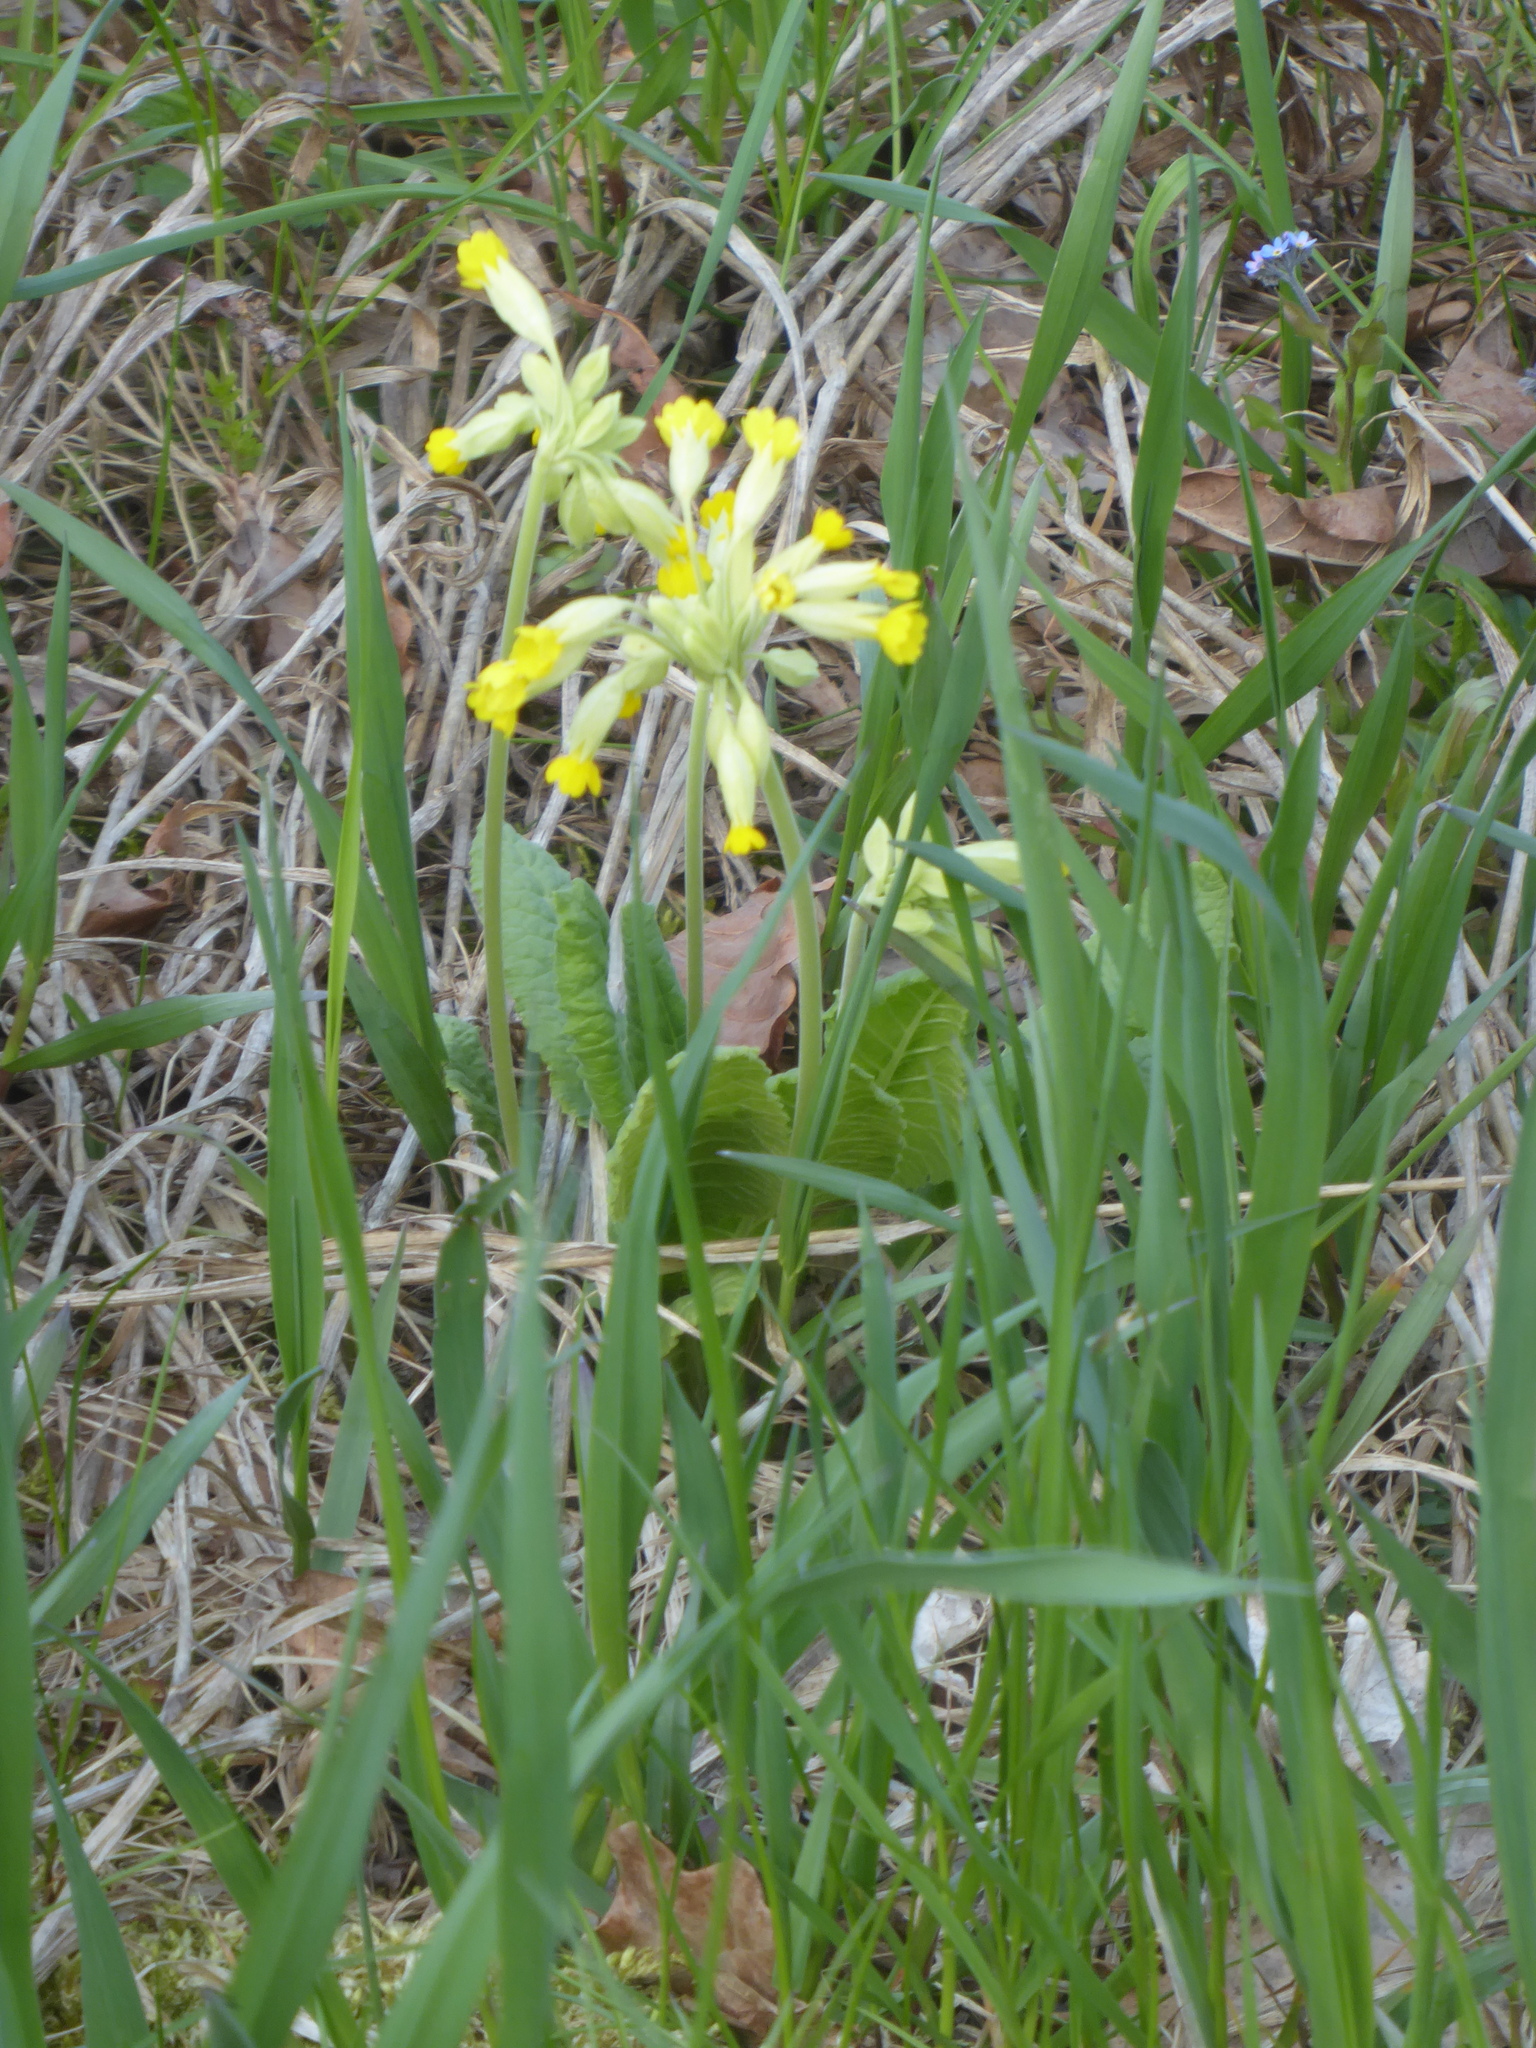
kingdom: Plantae
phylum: Tracheophyta
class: Magnoliopsida
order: Ericales
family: Primulaceae
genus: Primula
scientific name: Primula veris
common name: Cowslip
